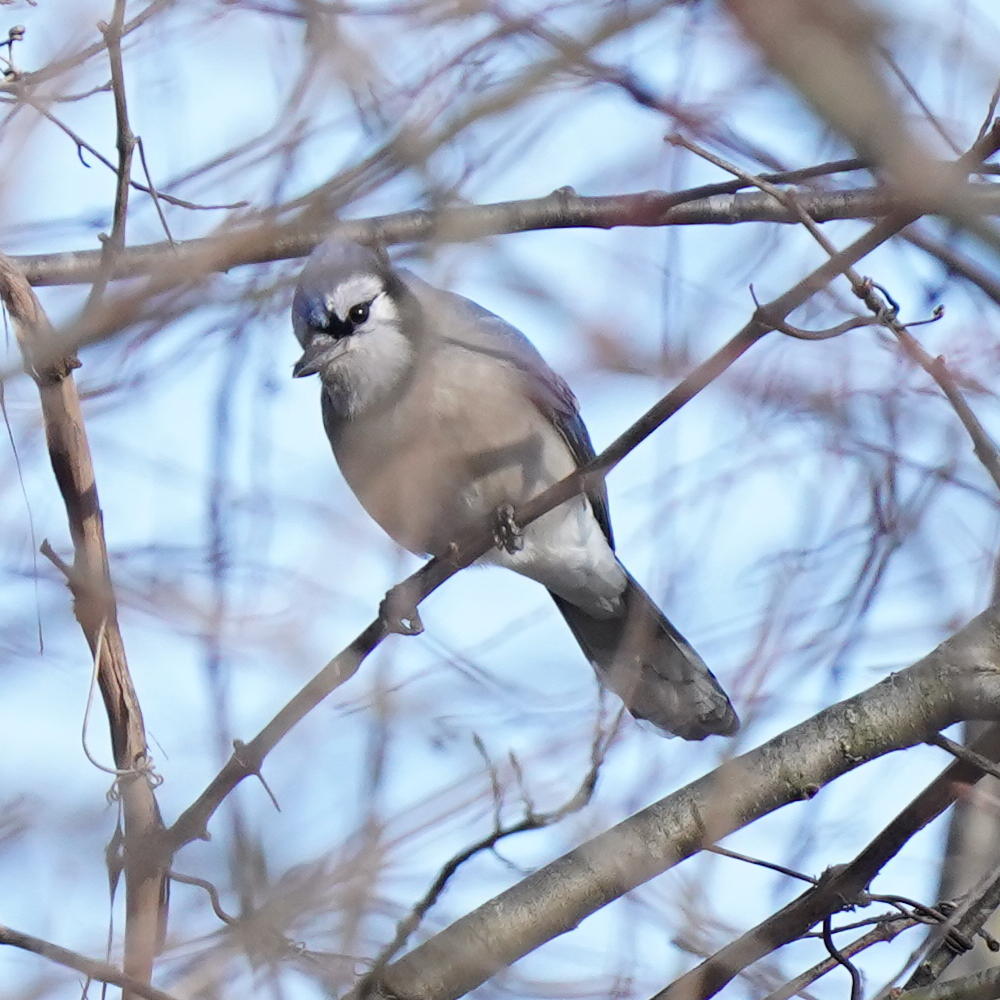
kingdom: Animalia
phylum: Chordata
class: Aves
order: Passeriformes
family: Corvidae
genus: Cyanocitta
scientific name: Cyanocitta cristata
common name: Blue jay
